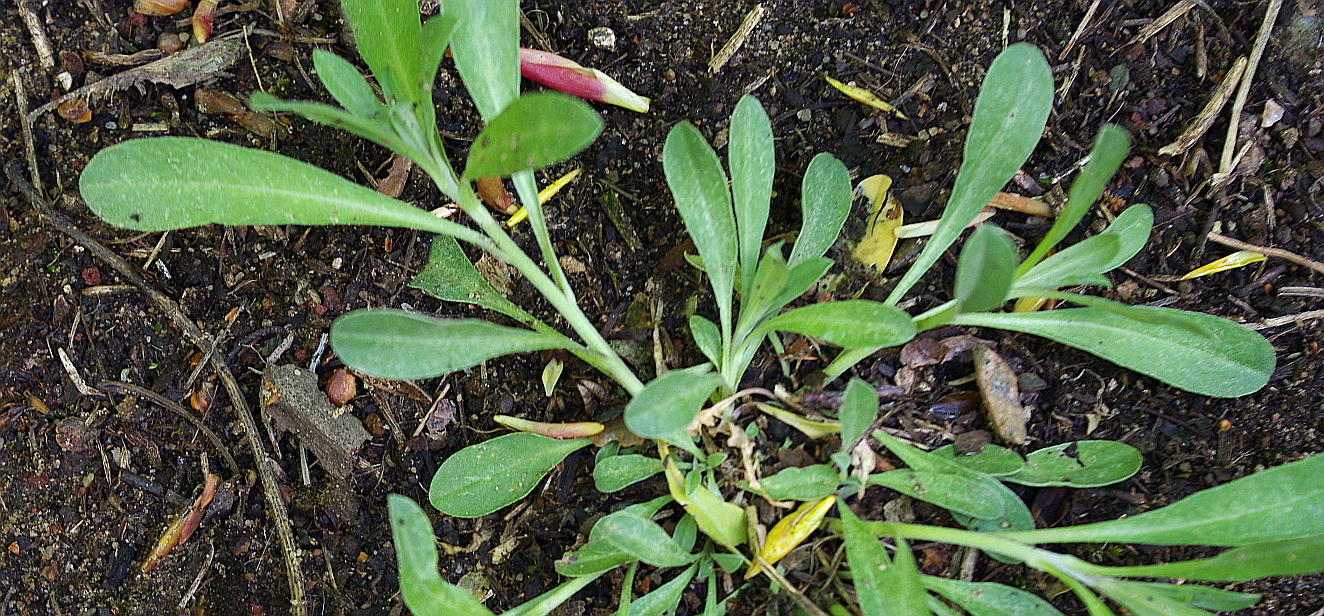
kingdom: Plantae
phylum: Tracheophyta
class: Magnoliopsida
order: Brassicales
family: Brassicaceae
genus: Berteroa
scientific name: Berteroa incana
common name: Hoary alison
